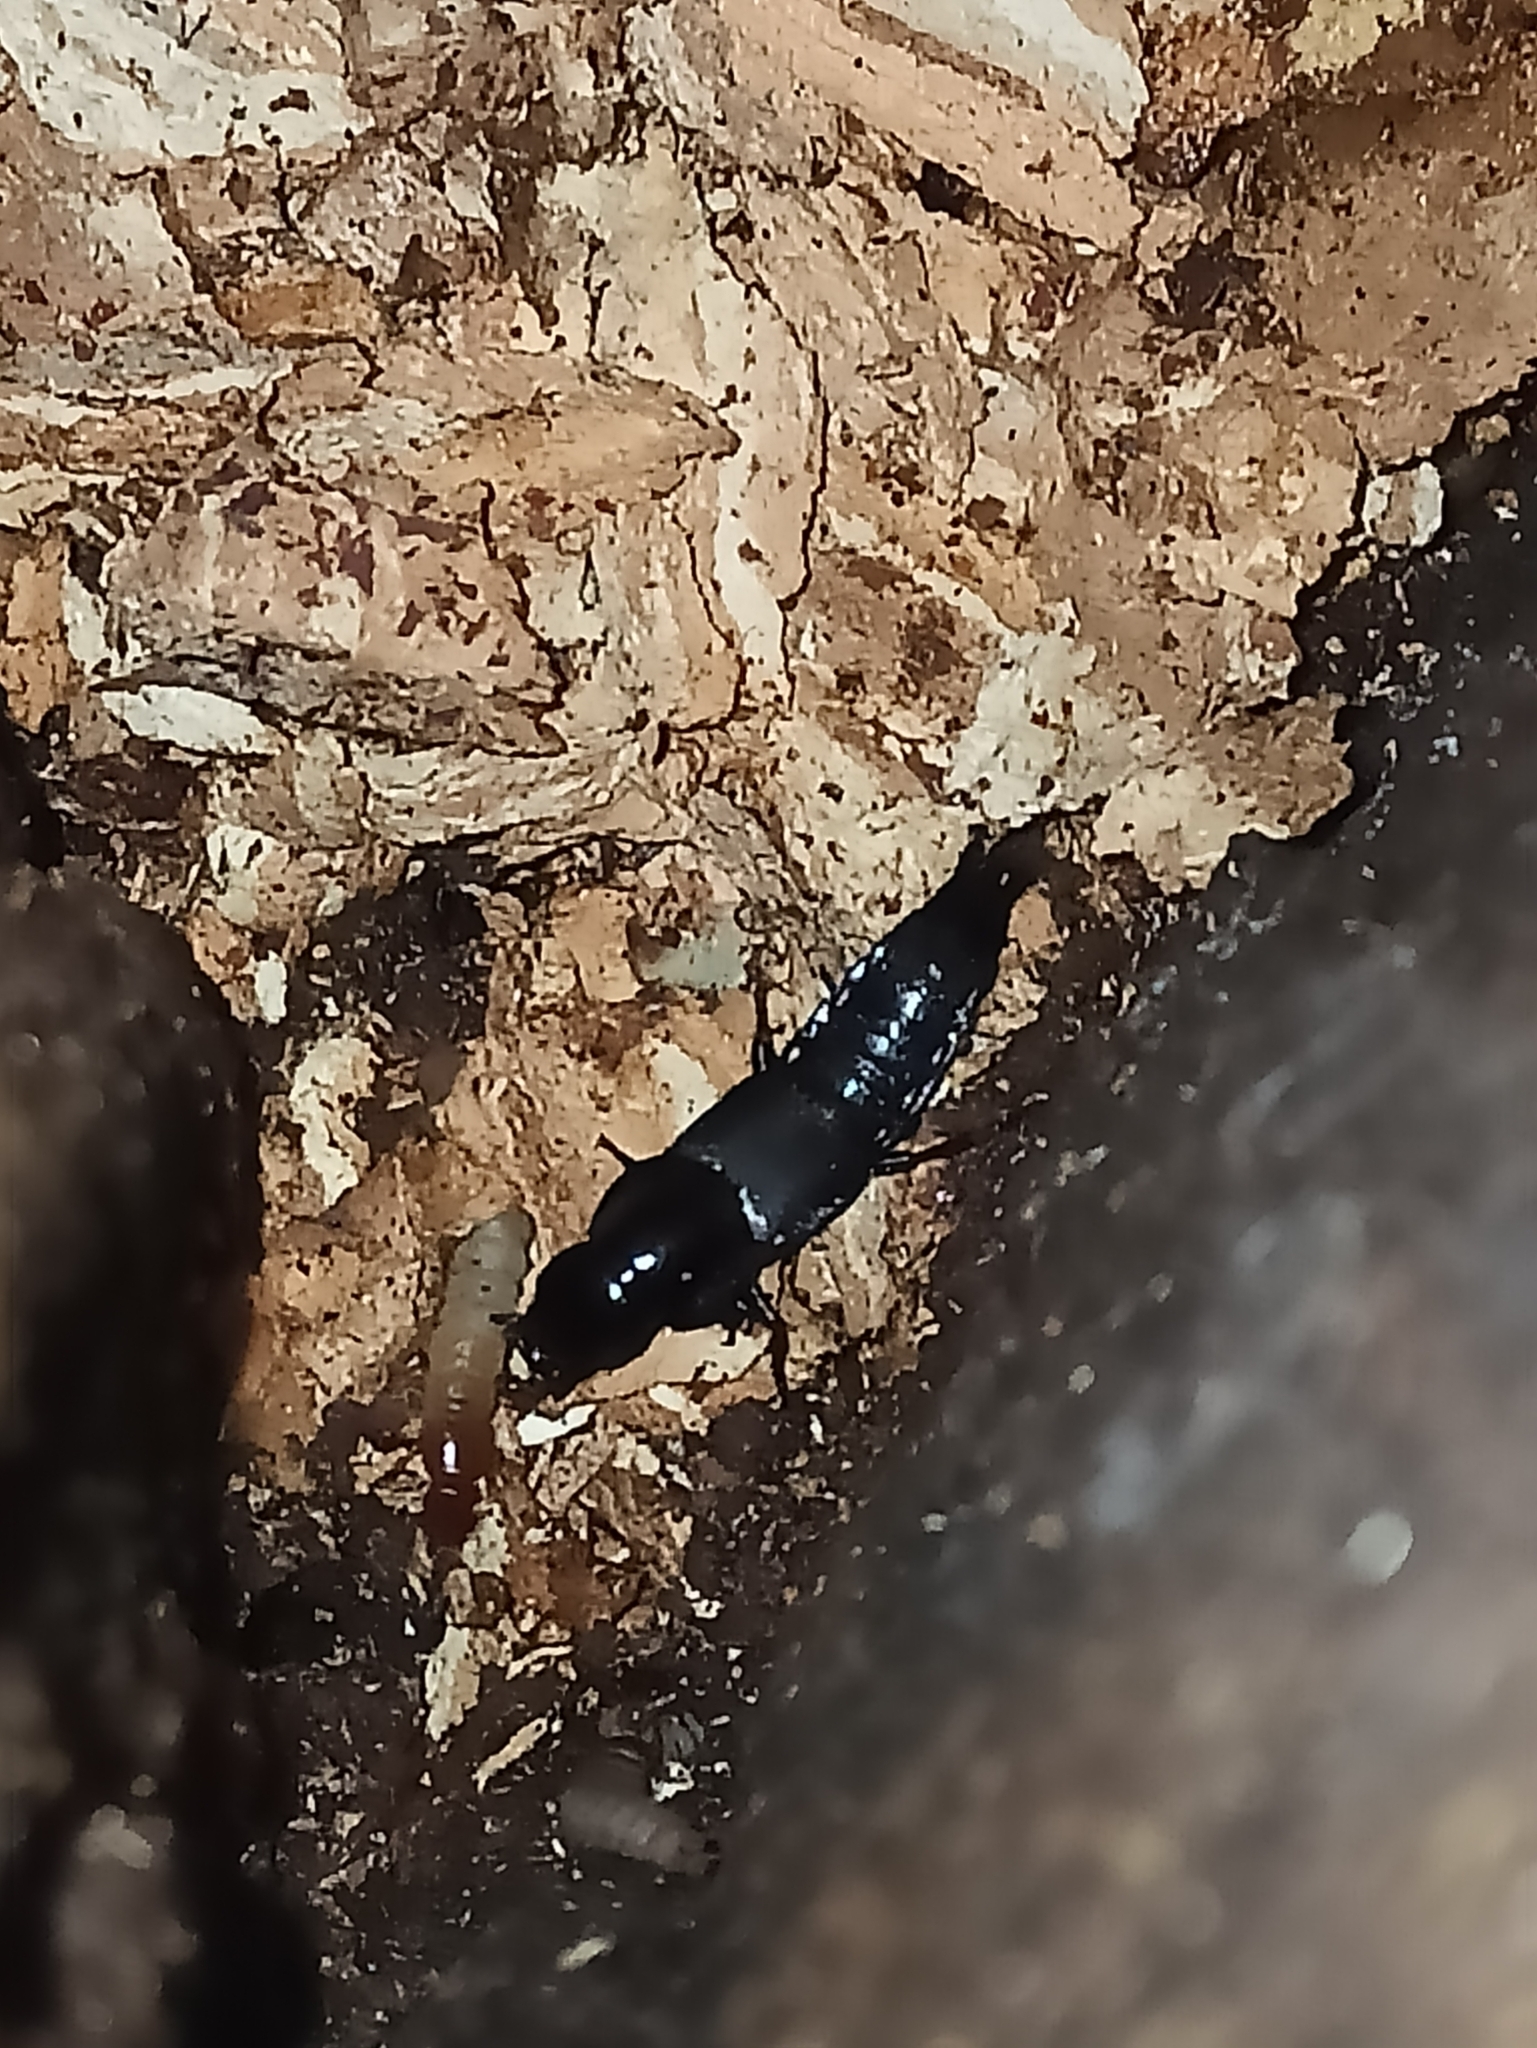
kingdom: Animalia
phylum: Arthropoda
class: Insecta
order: Coleoptera
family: Staphylinidae
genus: Quedius
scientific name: Quedius dilatatus
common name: Hornet rove-beetle
